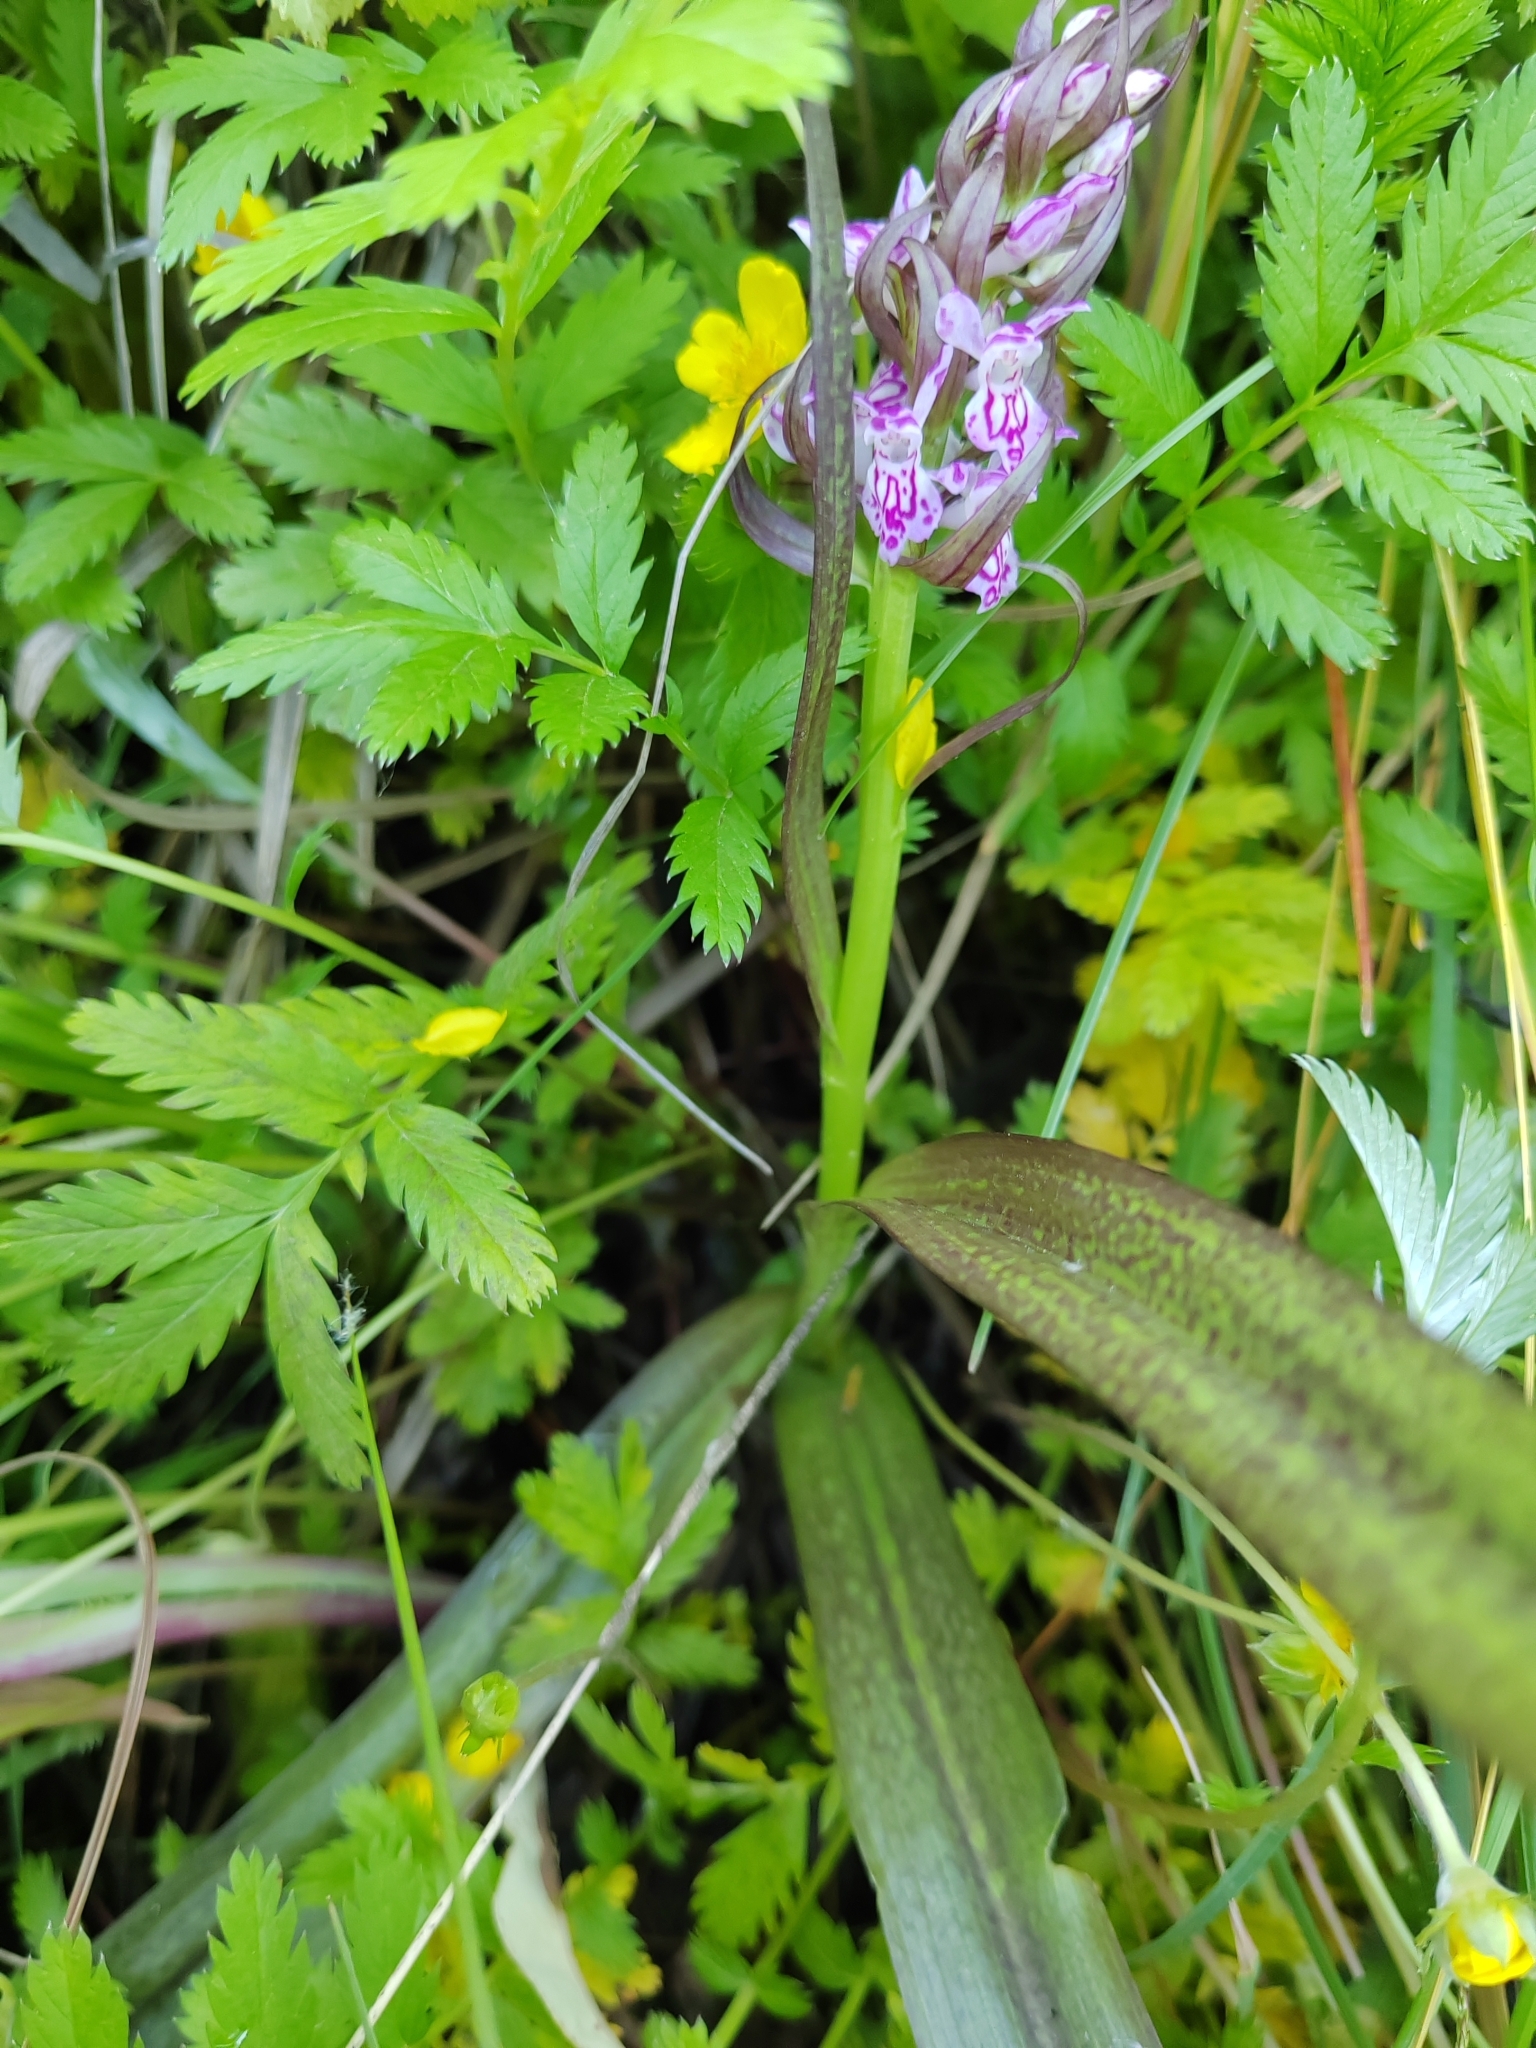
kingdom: Plantae
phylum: Tracheophyta
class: Liliopsida
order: Asparagales
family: Orchidaceae
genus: Dactylorhiza
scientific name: Dactylorhiza incarnata
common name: Early marsh-orchid
